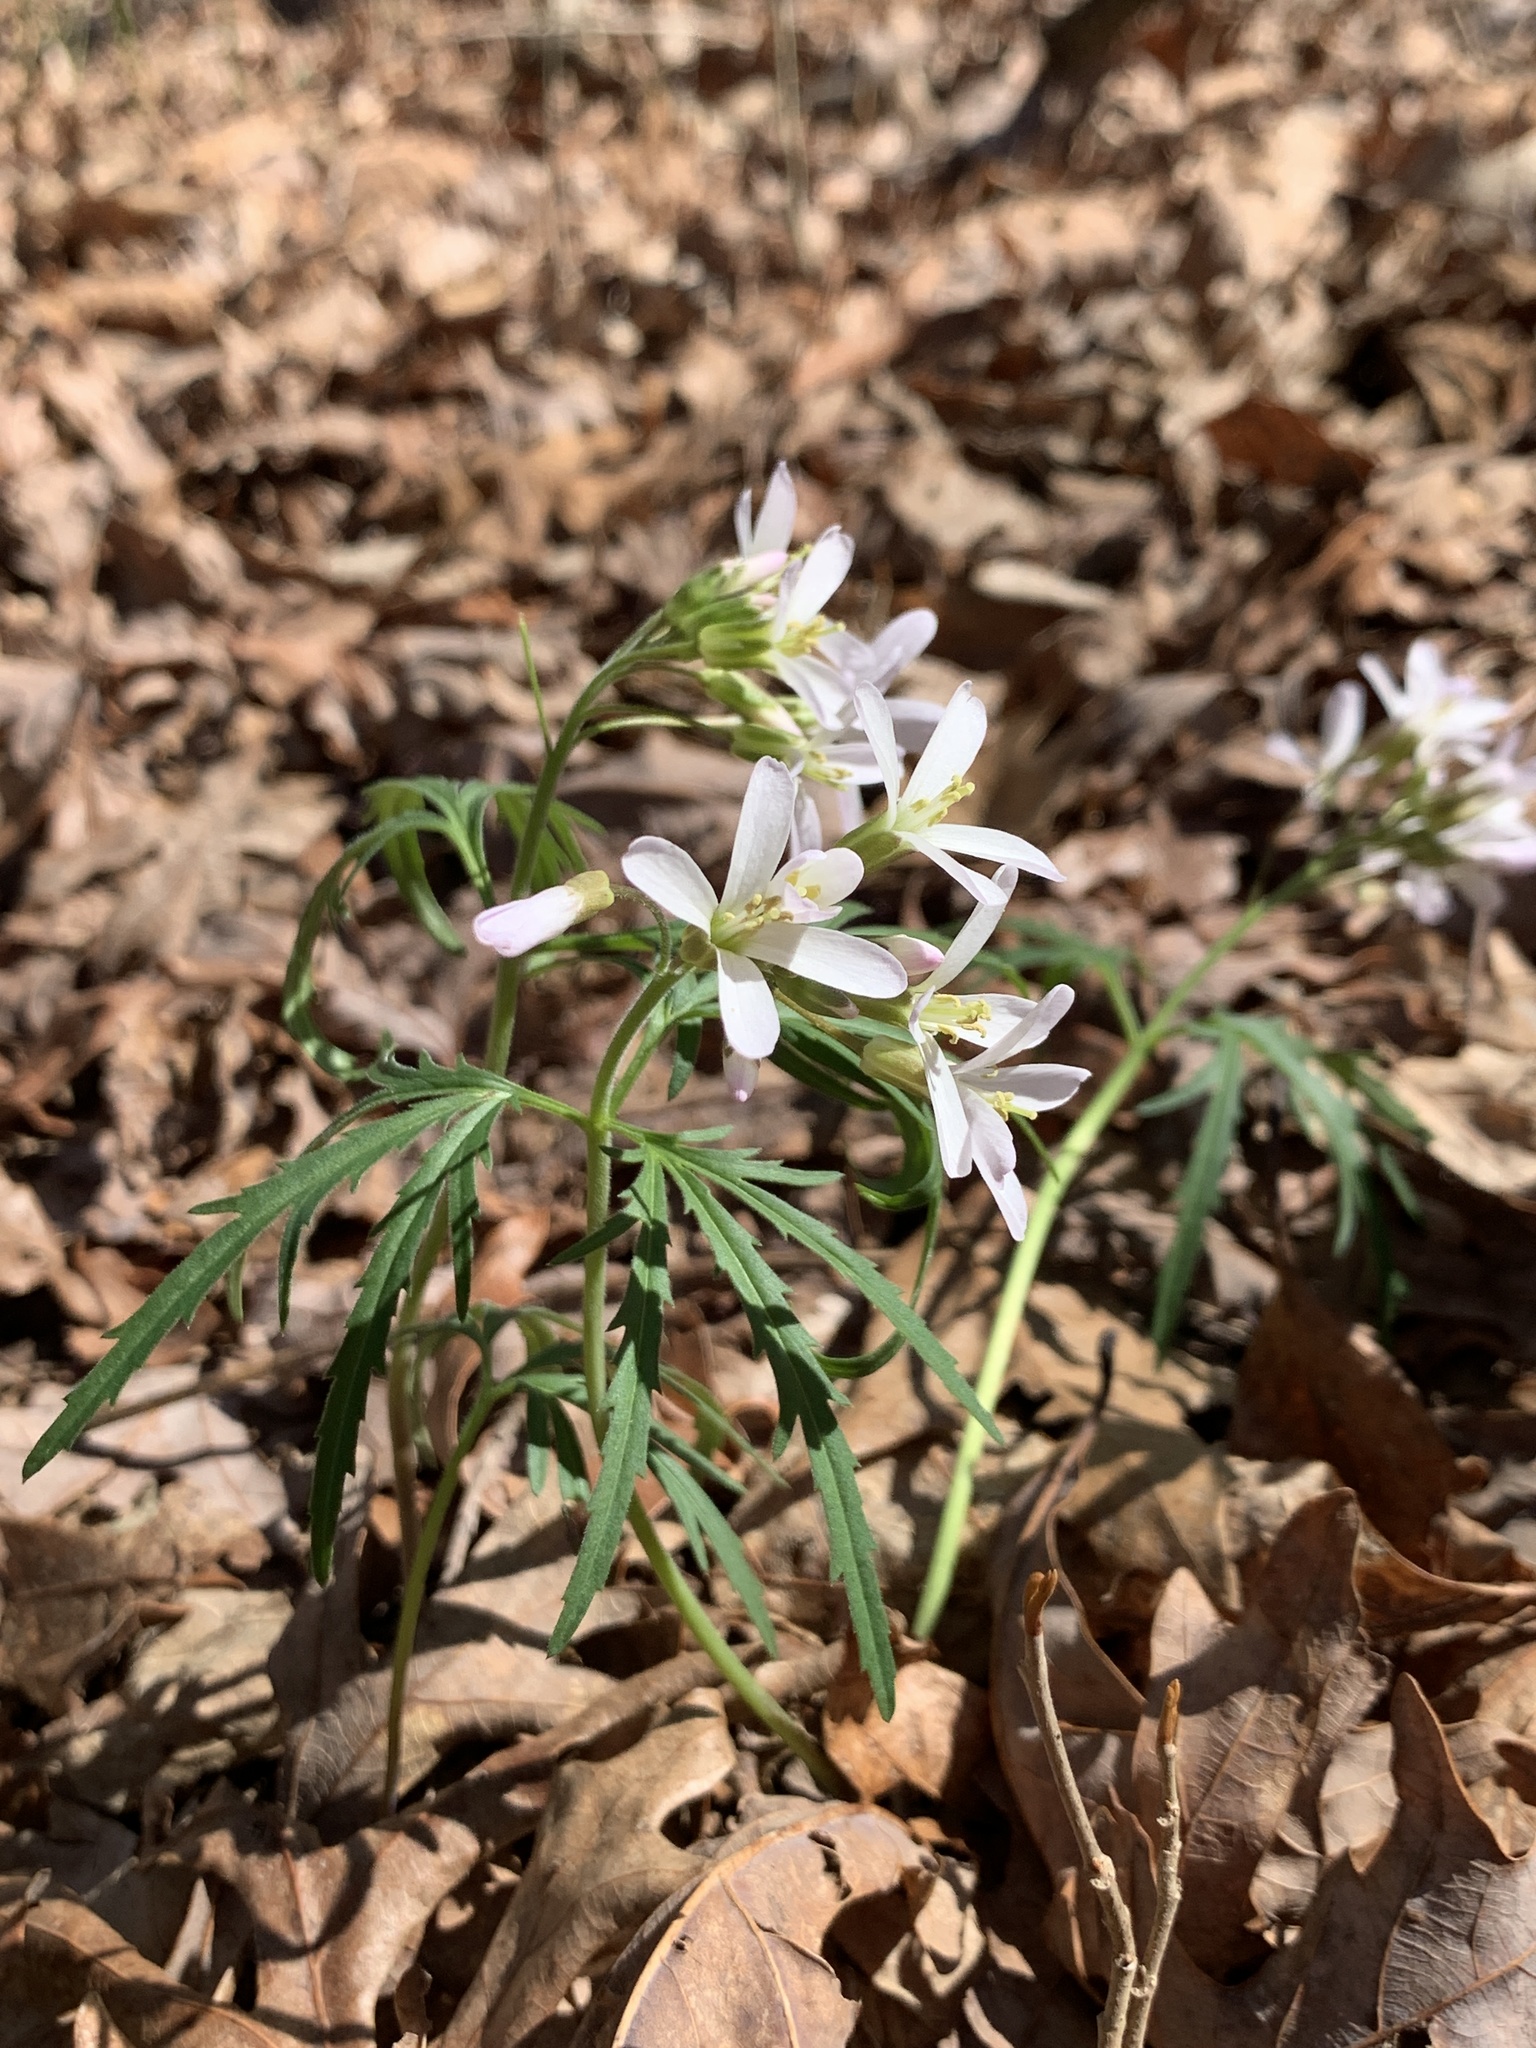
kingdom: Plantae
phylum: Tracheophyta
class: Magnoliopsida
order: Brassicales
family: Brassicaceae
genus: Cardamine
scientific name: Cardamine concatenata
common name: Cut-leaf toothcup
